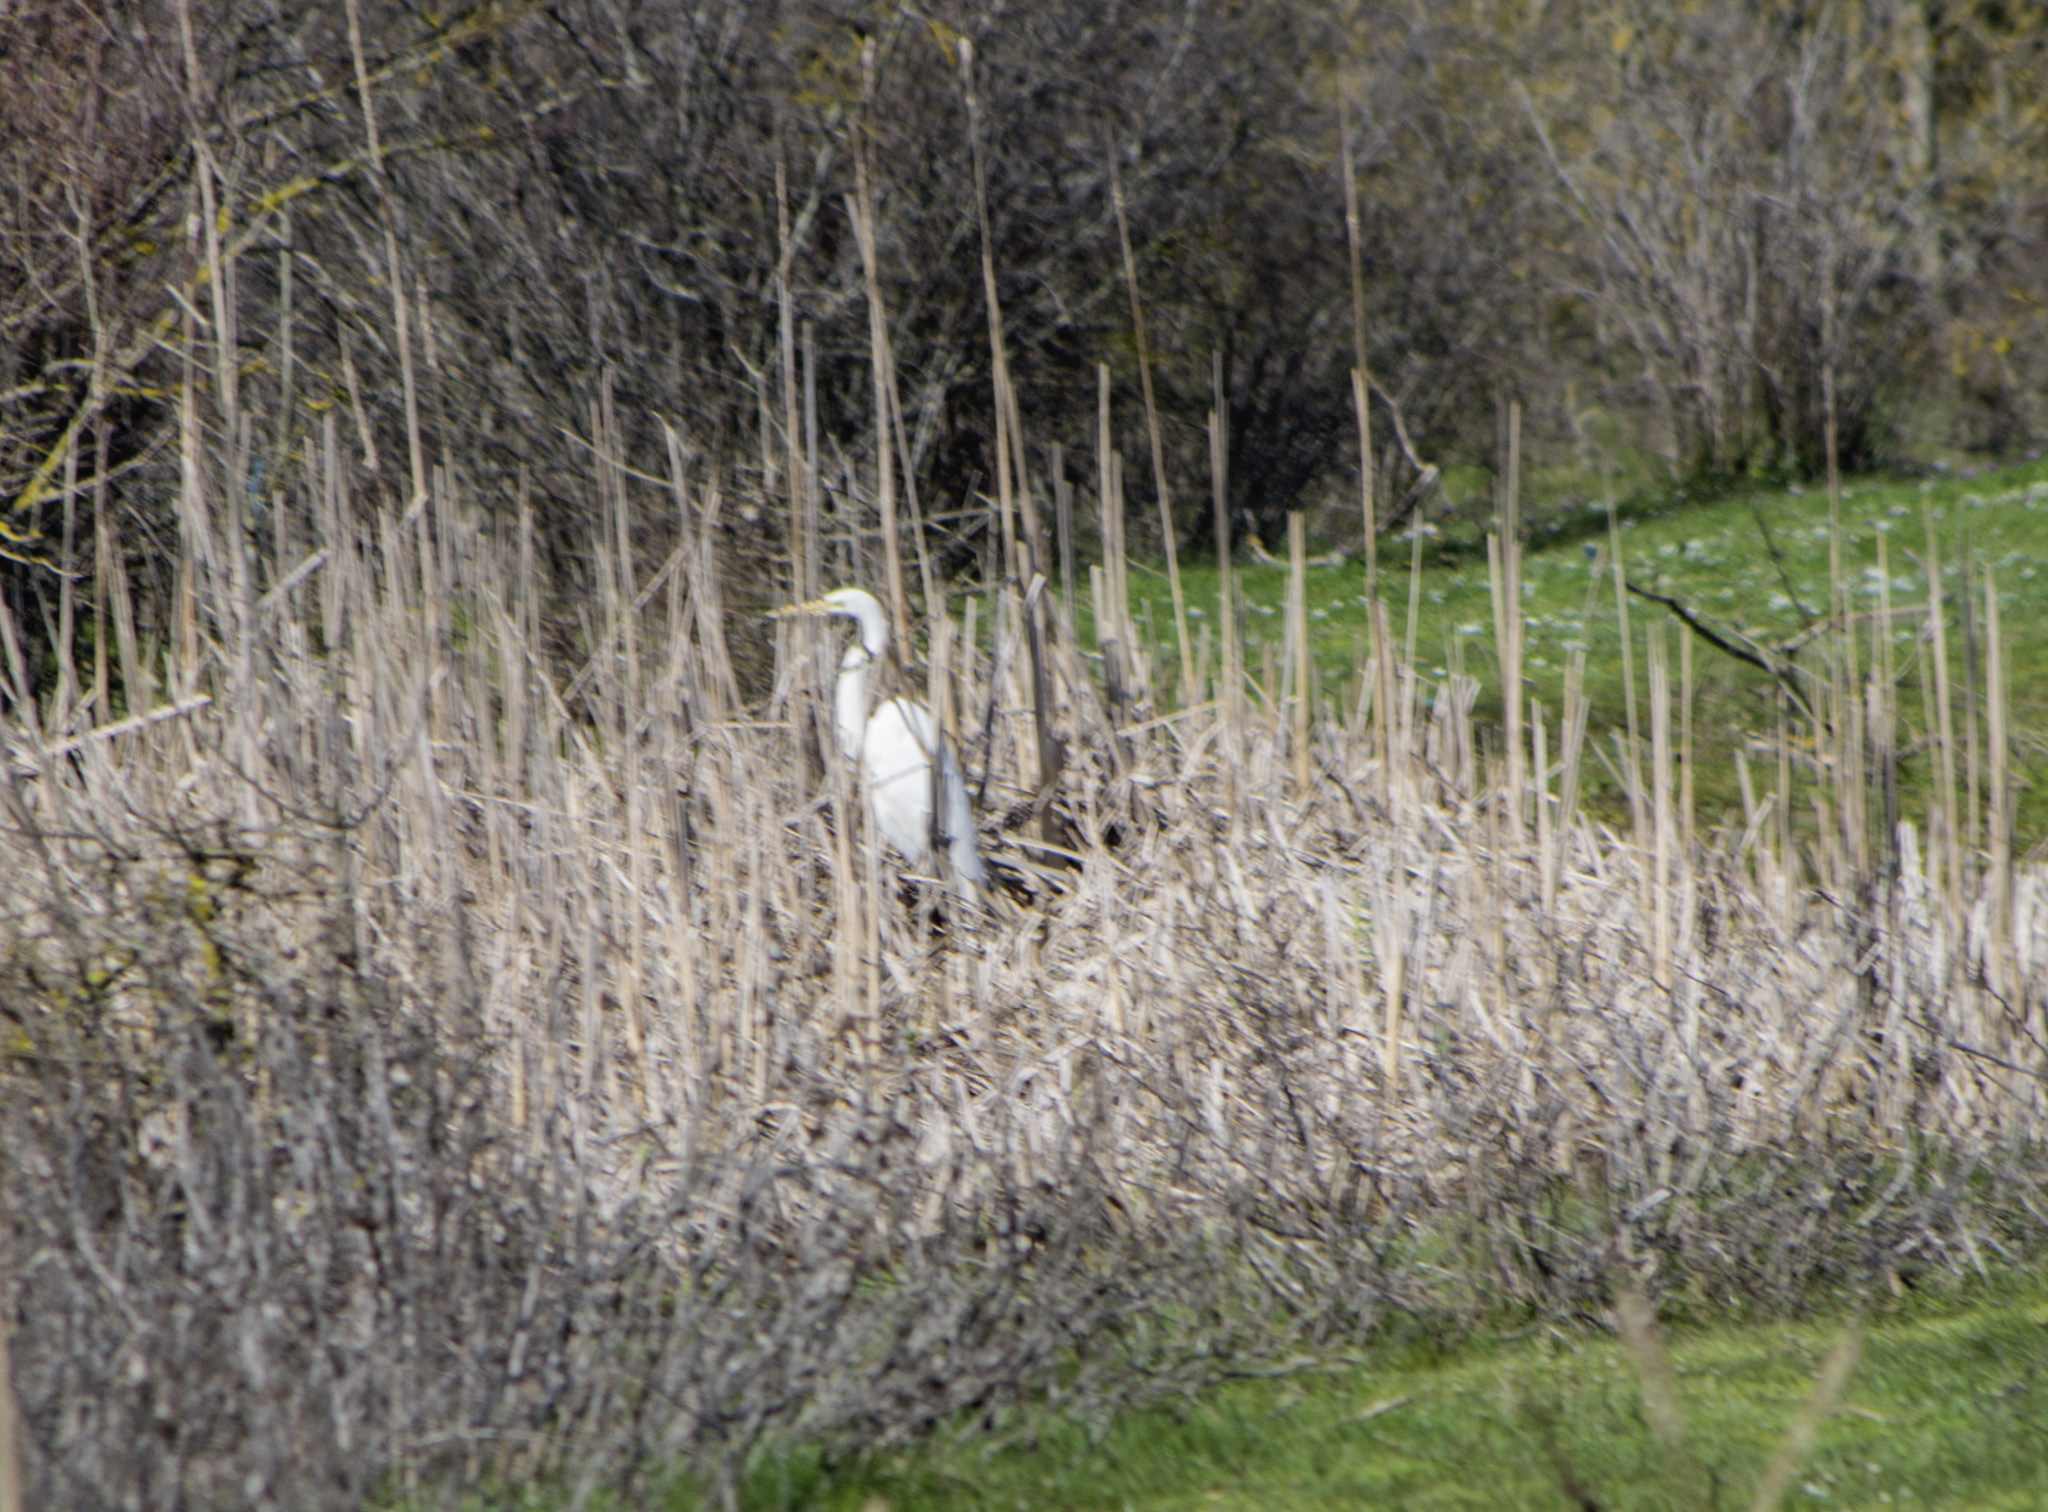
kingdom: Animalia
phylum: Chordata
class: Aves
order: Pelecaniformes
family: Ardeidae
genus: Ardea
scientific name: Ardea alba
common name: Great egret
